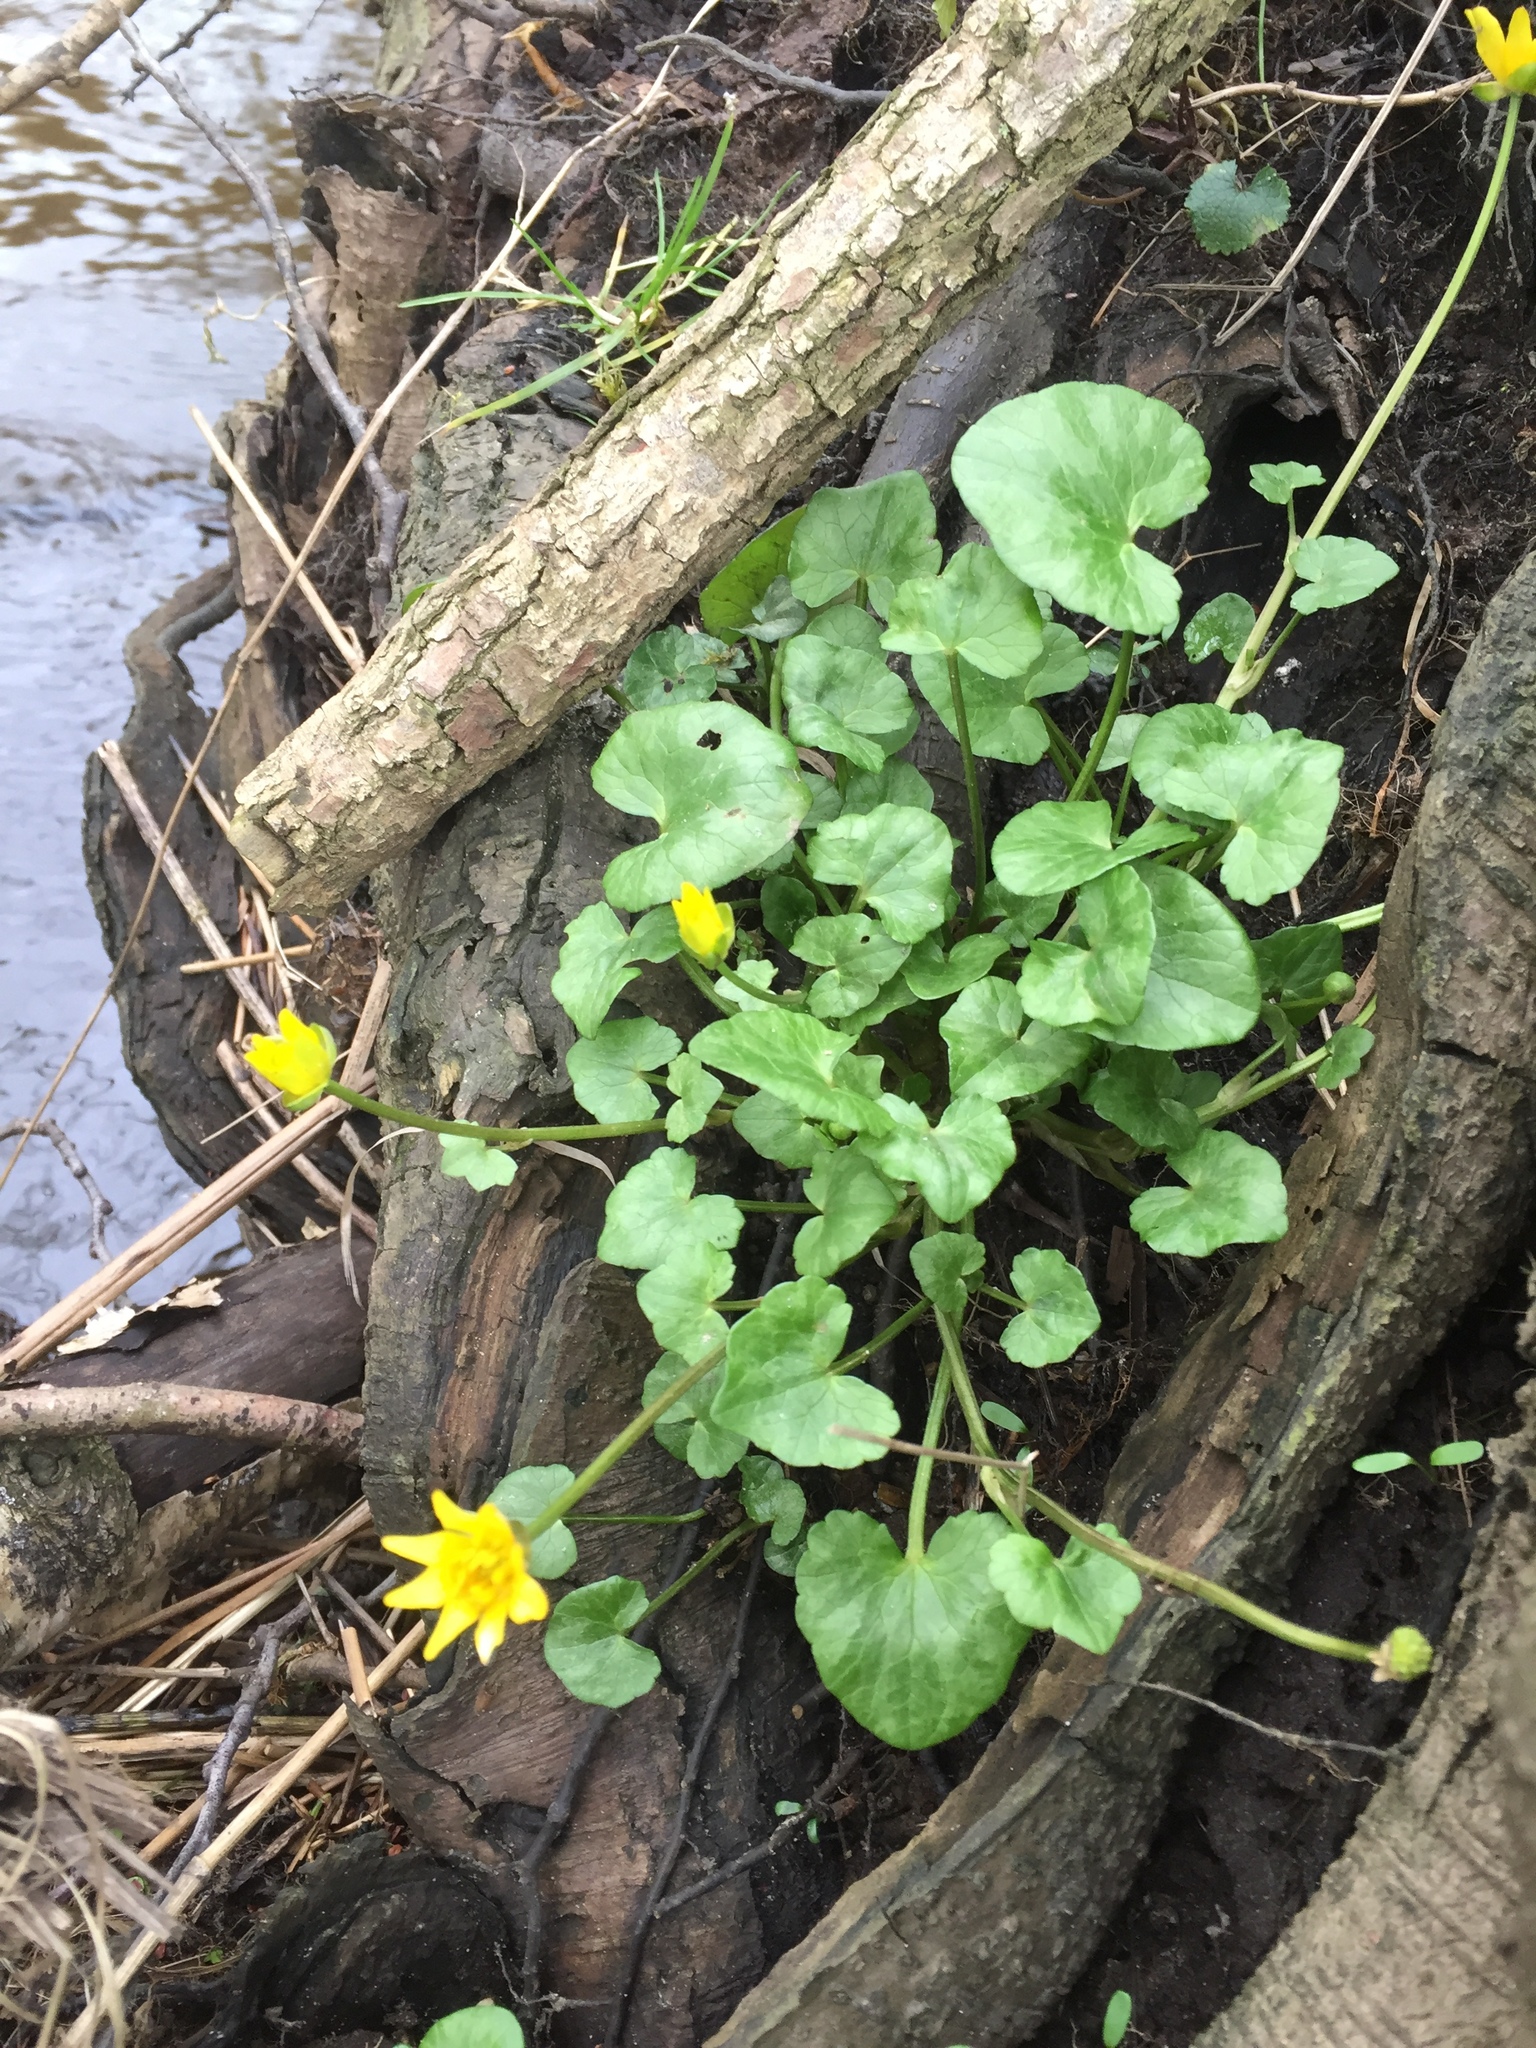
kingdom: Plantae
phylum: Tracheophyta
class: Magnoliopsida
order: Ranunculales
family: Ranunculaceae
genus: Ficaria
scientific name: Ficaria verna
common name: Lesser celandine
